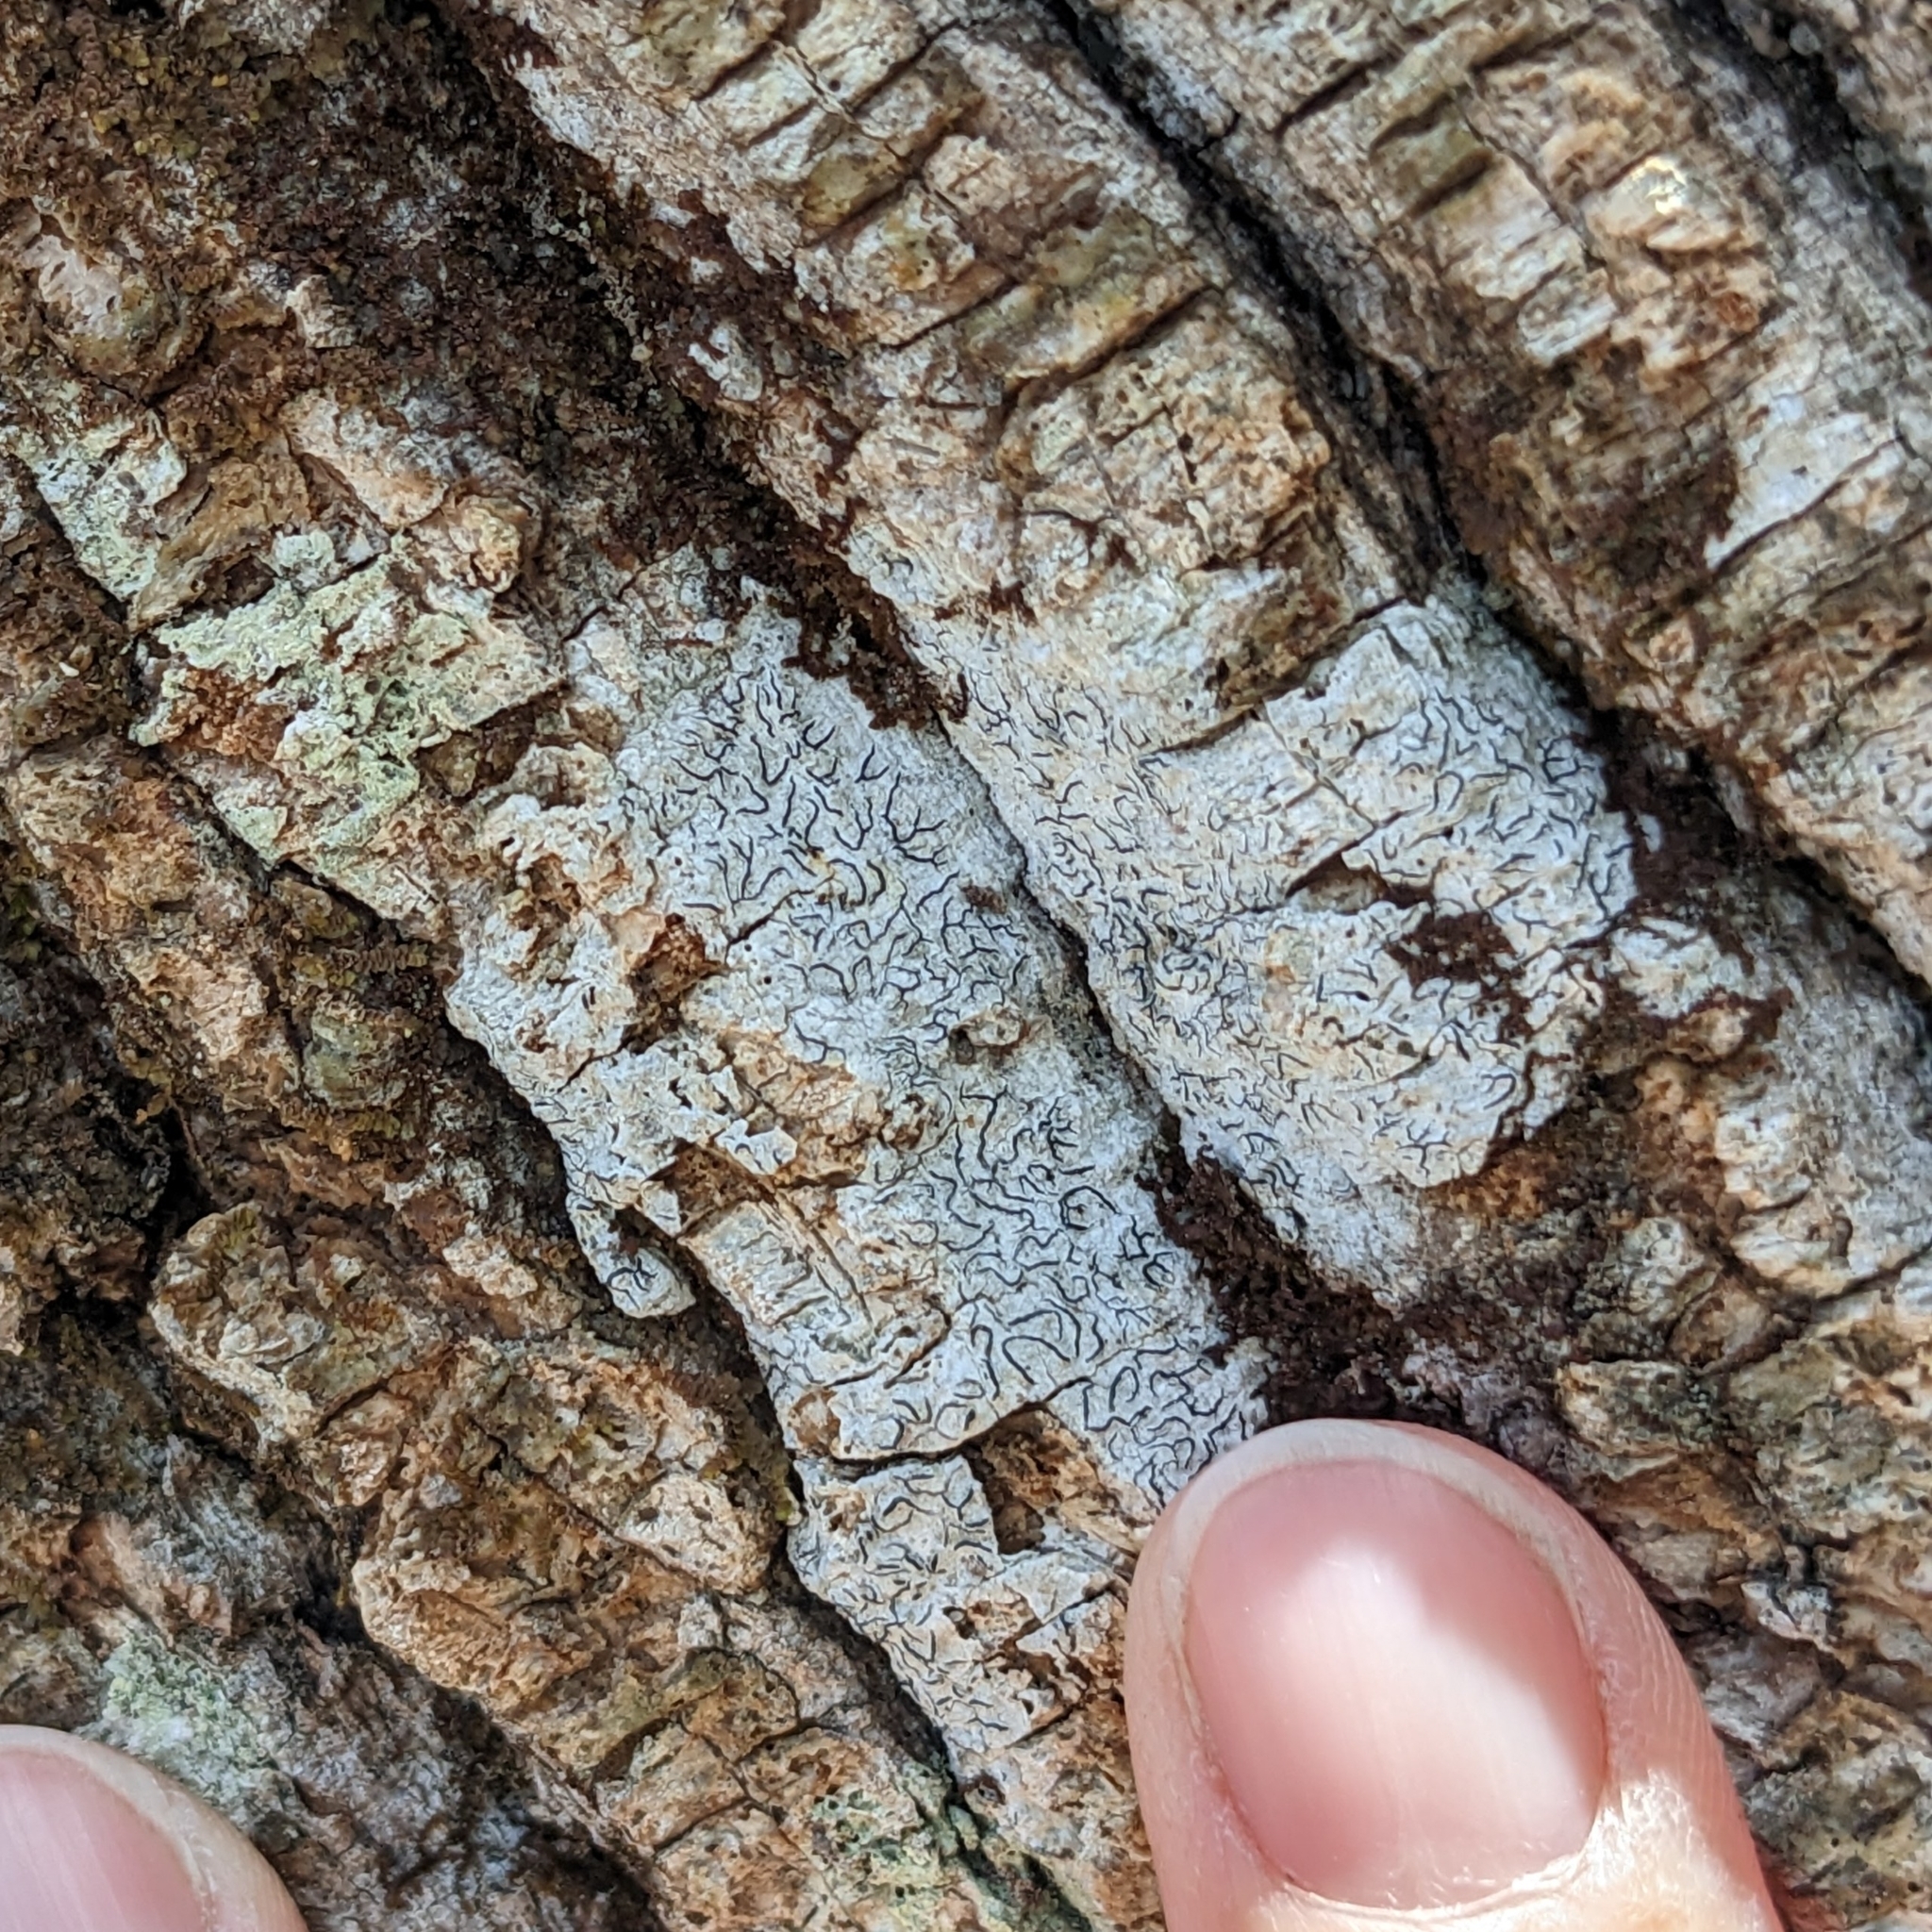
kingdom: Fungi
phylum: Ascomycota
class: Lecanoromycetes
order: Ostropales
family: Graphidaceae
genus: Graphis
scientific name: Graphis scripta
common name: Script lichen
